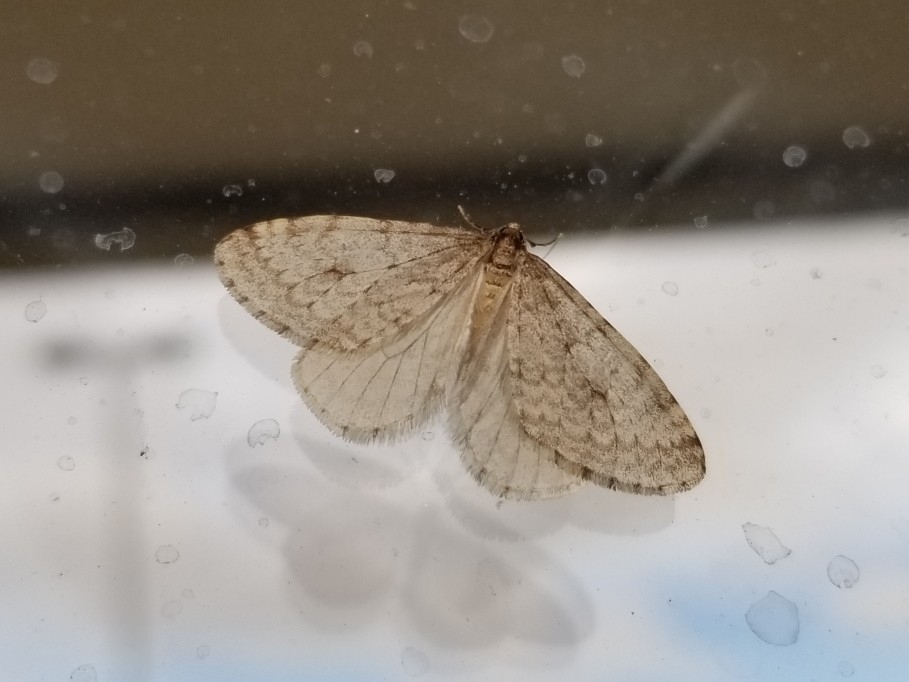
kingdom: Animalia
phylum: Arthropoda
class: Insecta
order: Lepidoptera
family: Geometridae
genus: Operophtera
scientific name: Operophtera bruceata
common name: Bruce spanworm
